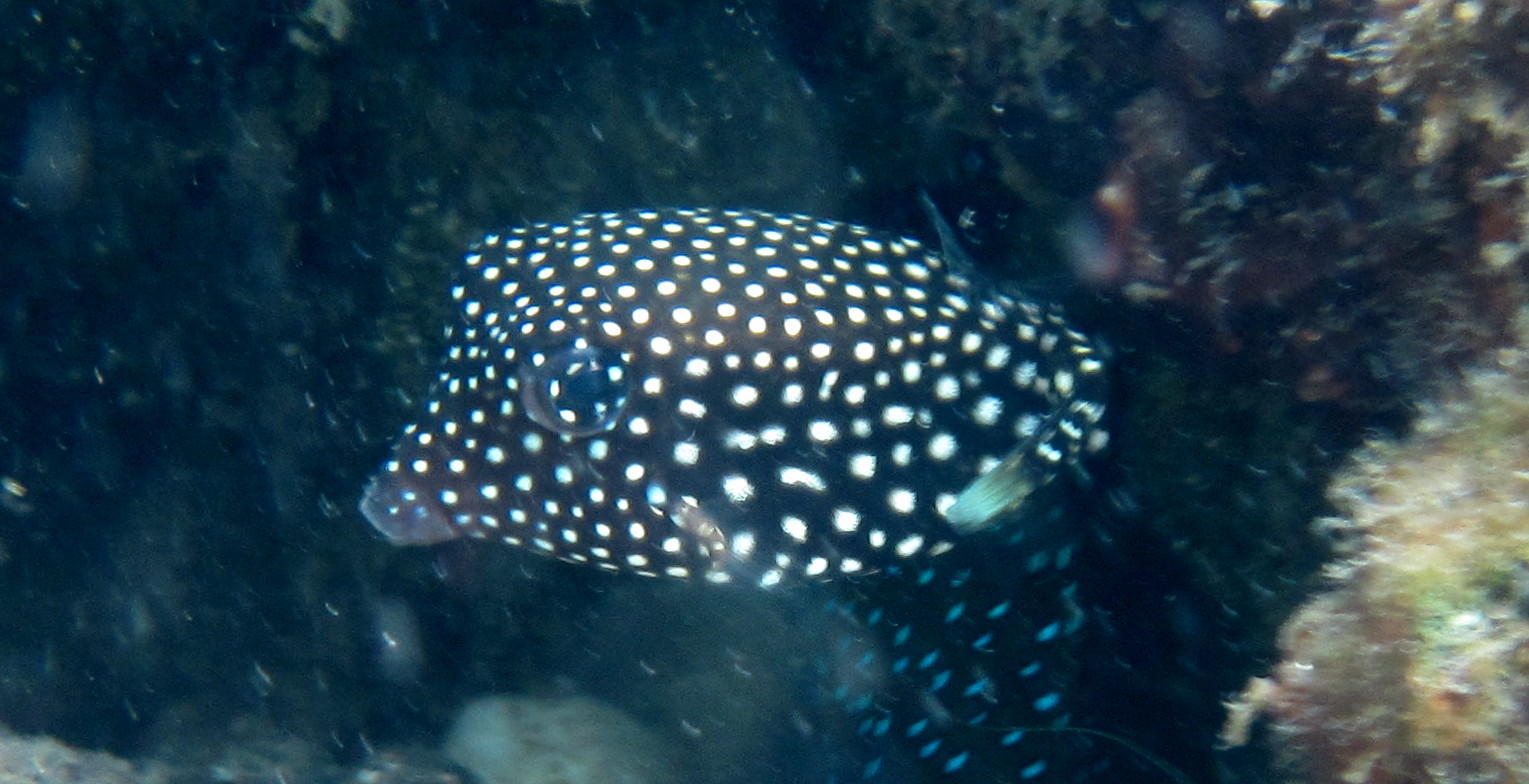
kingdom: Animalia
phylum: Chordata
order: Tetraodontiformes
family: Ostraciidae
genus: Ostracion
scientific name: Ostracion meleagris
